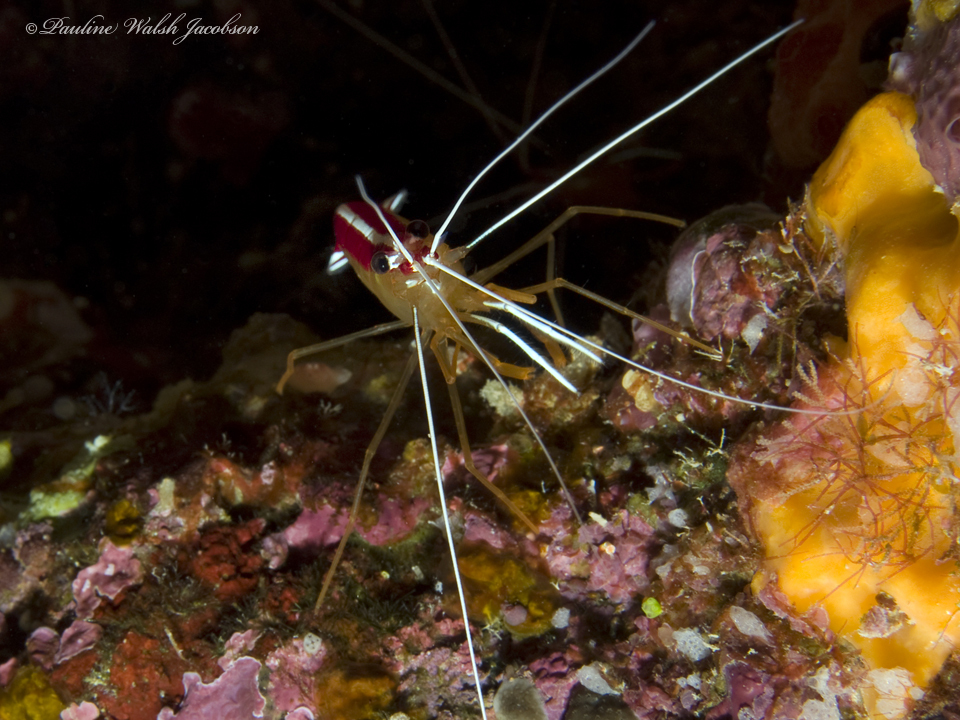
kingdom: Animalia
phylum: Arthropoda
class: Malacostraca
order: Decapoda
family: Lysmatidae
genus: Lysmata
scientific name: Lysmata amboinensis
